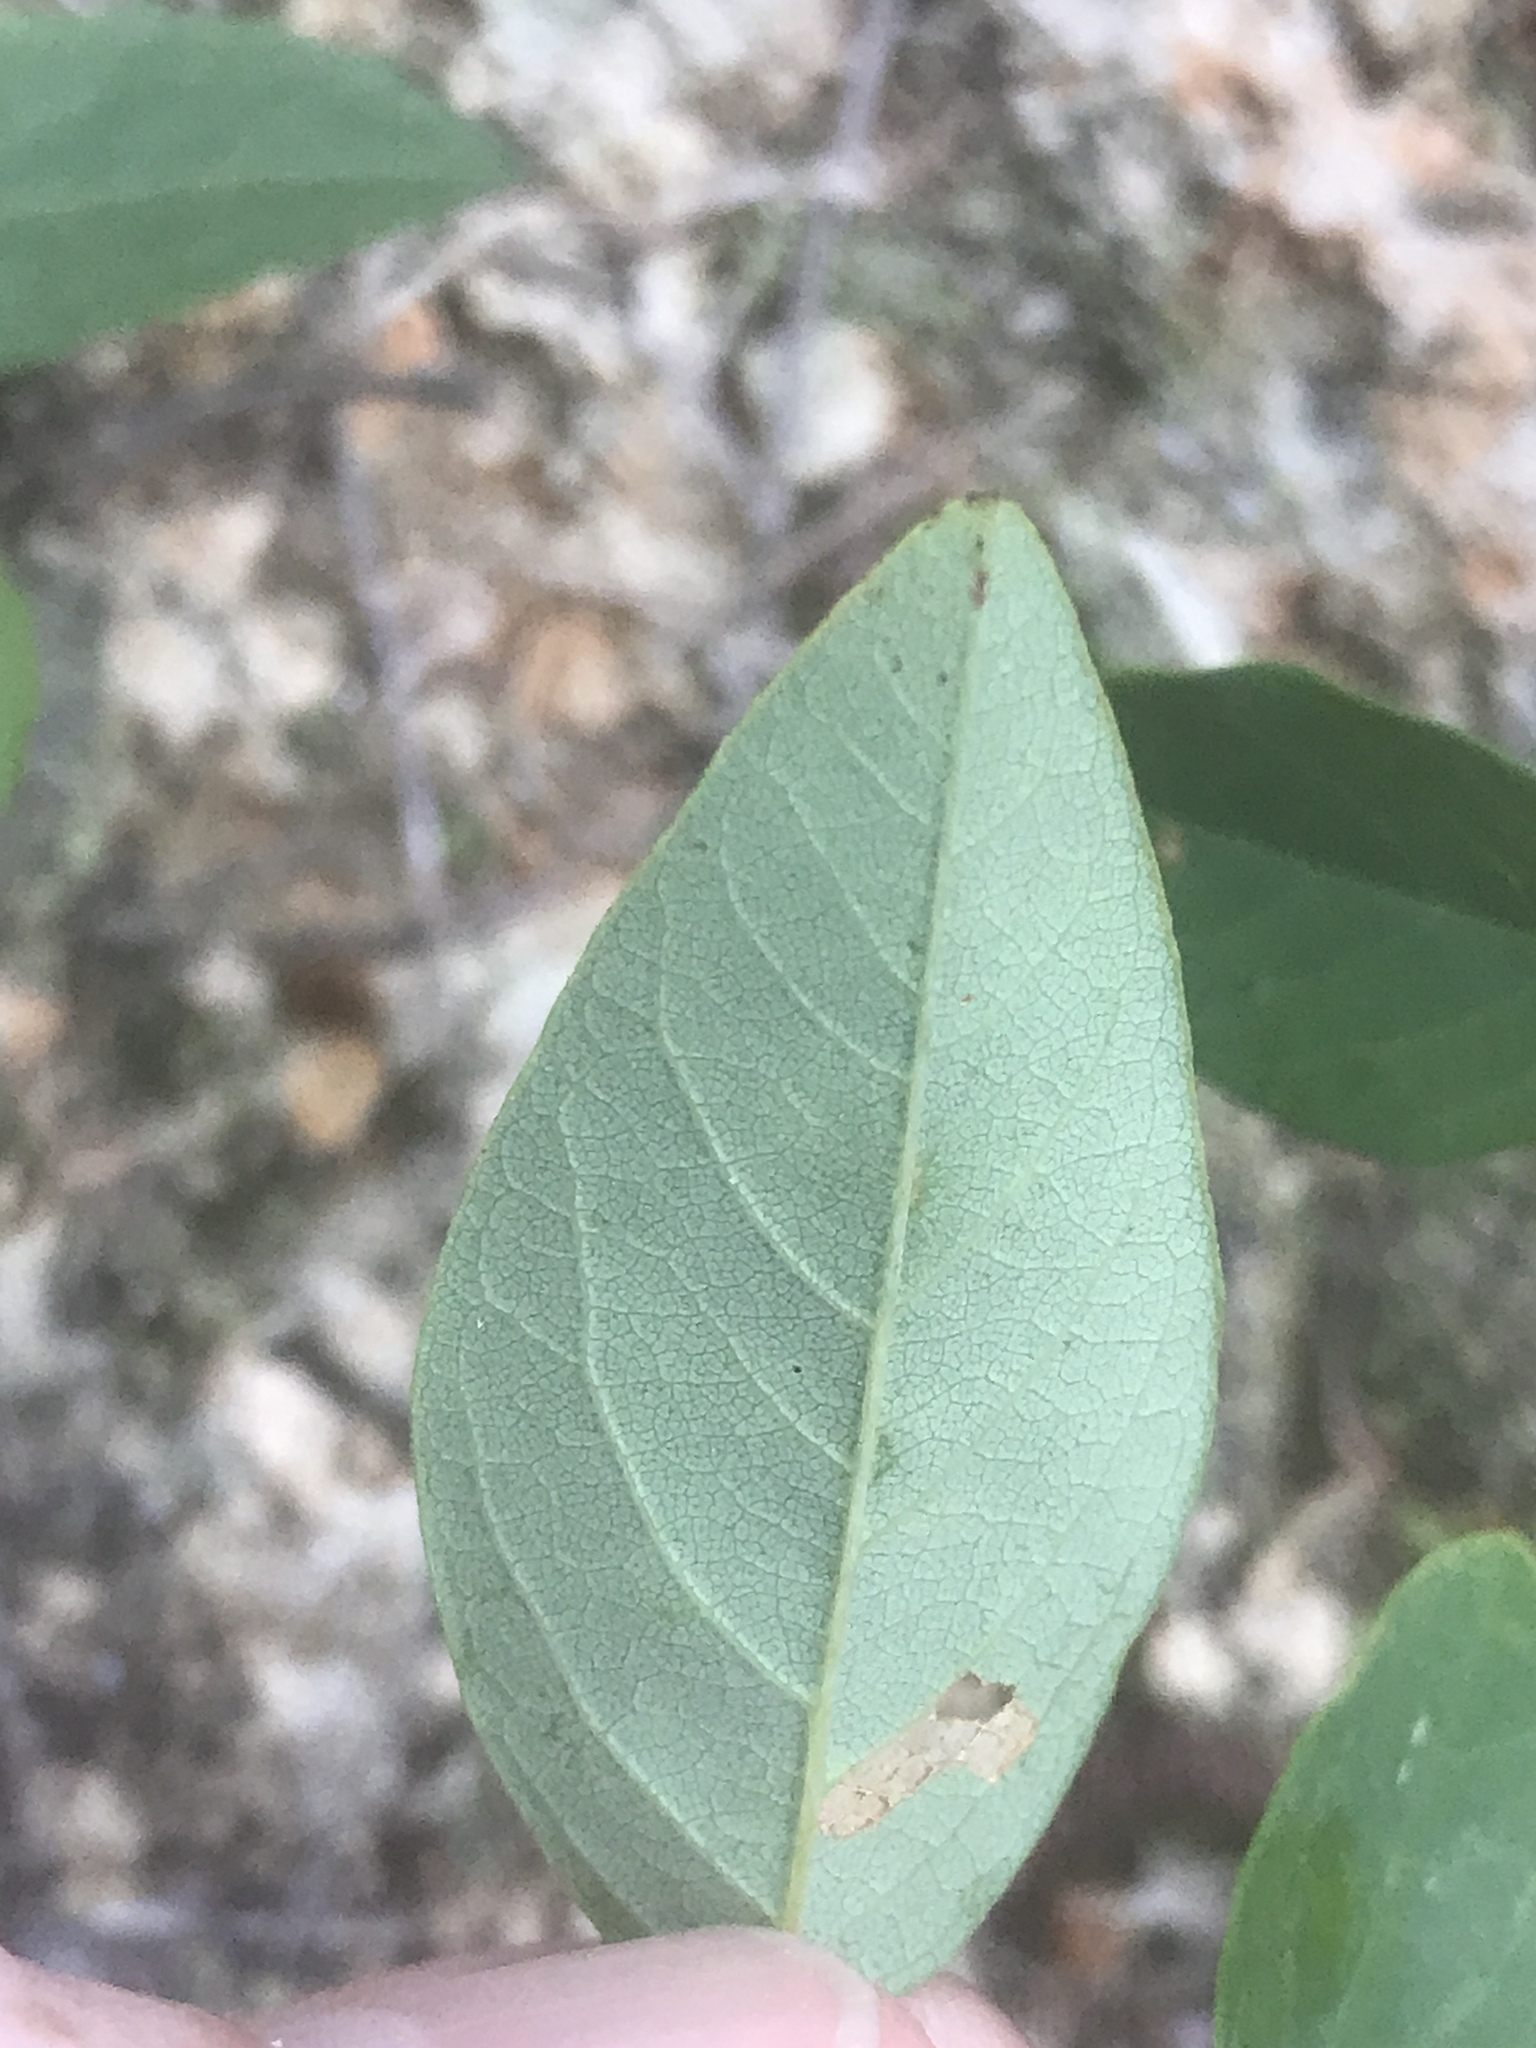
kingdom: Plantae
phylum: Tracheophyta
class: Magnoliopsida
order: Fabales
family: Fabaceae
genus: Clitoria
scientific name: Clitoria mariana
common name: Butterfly-pea
